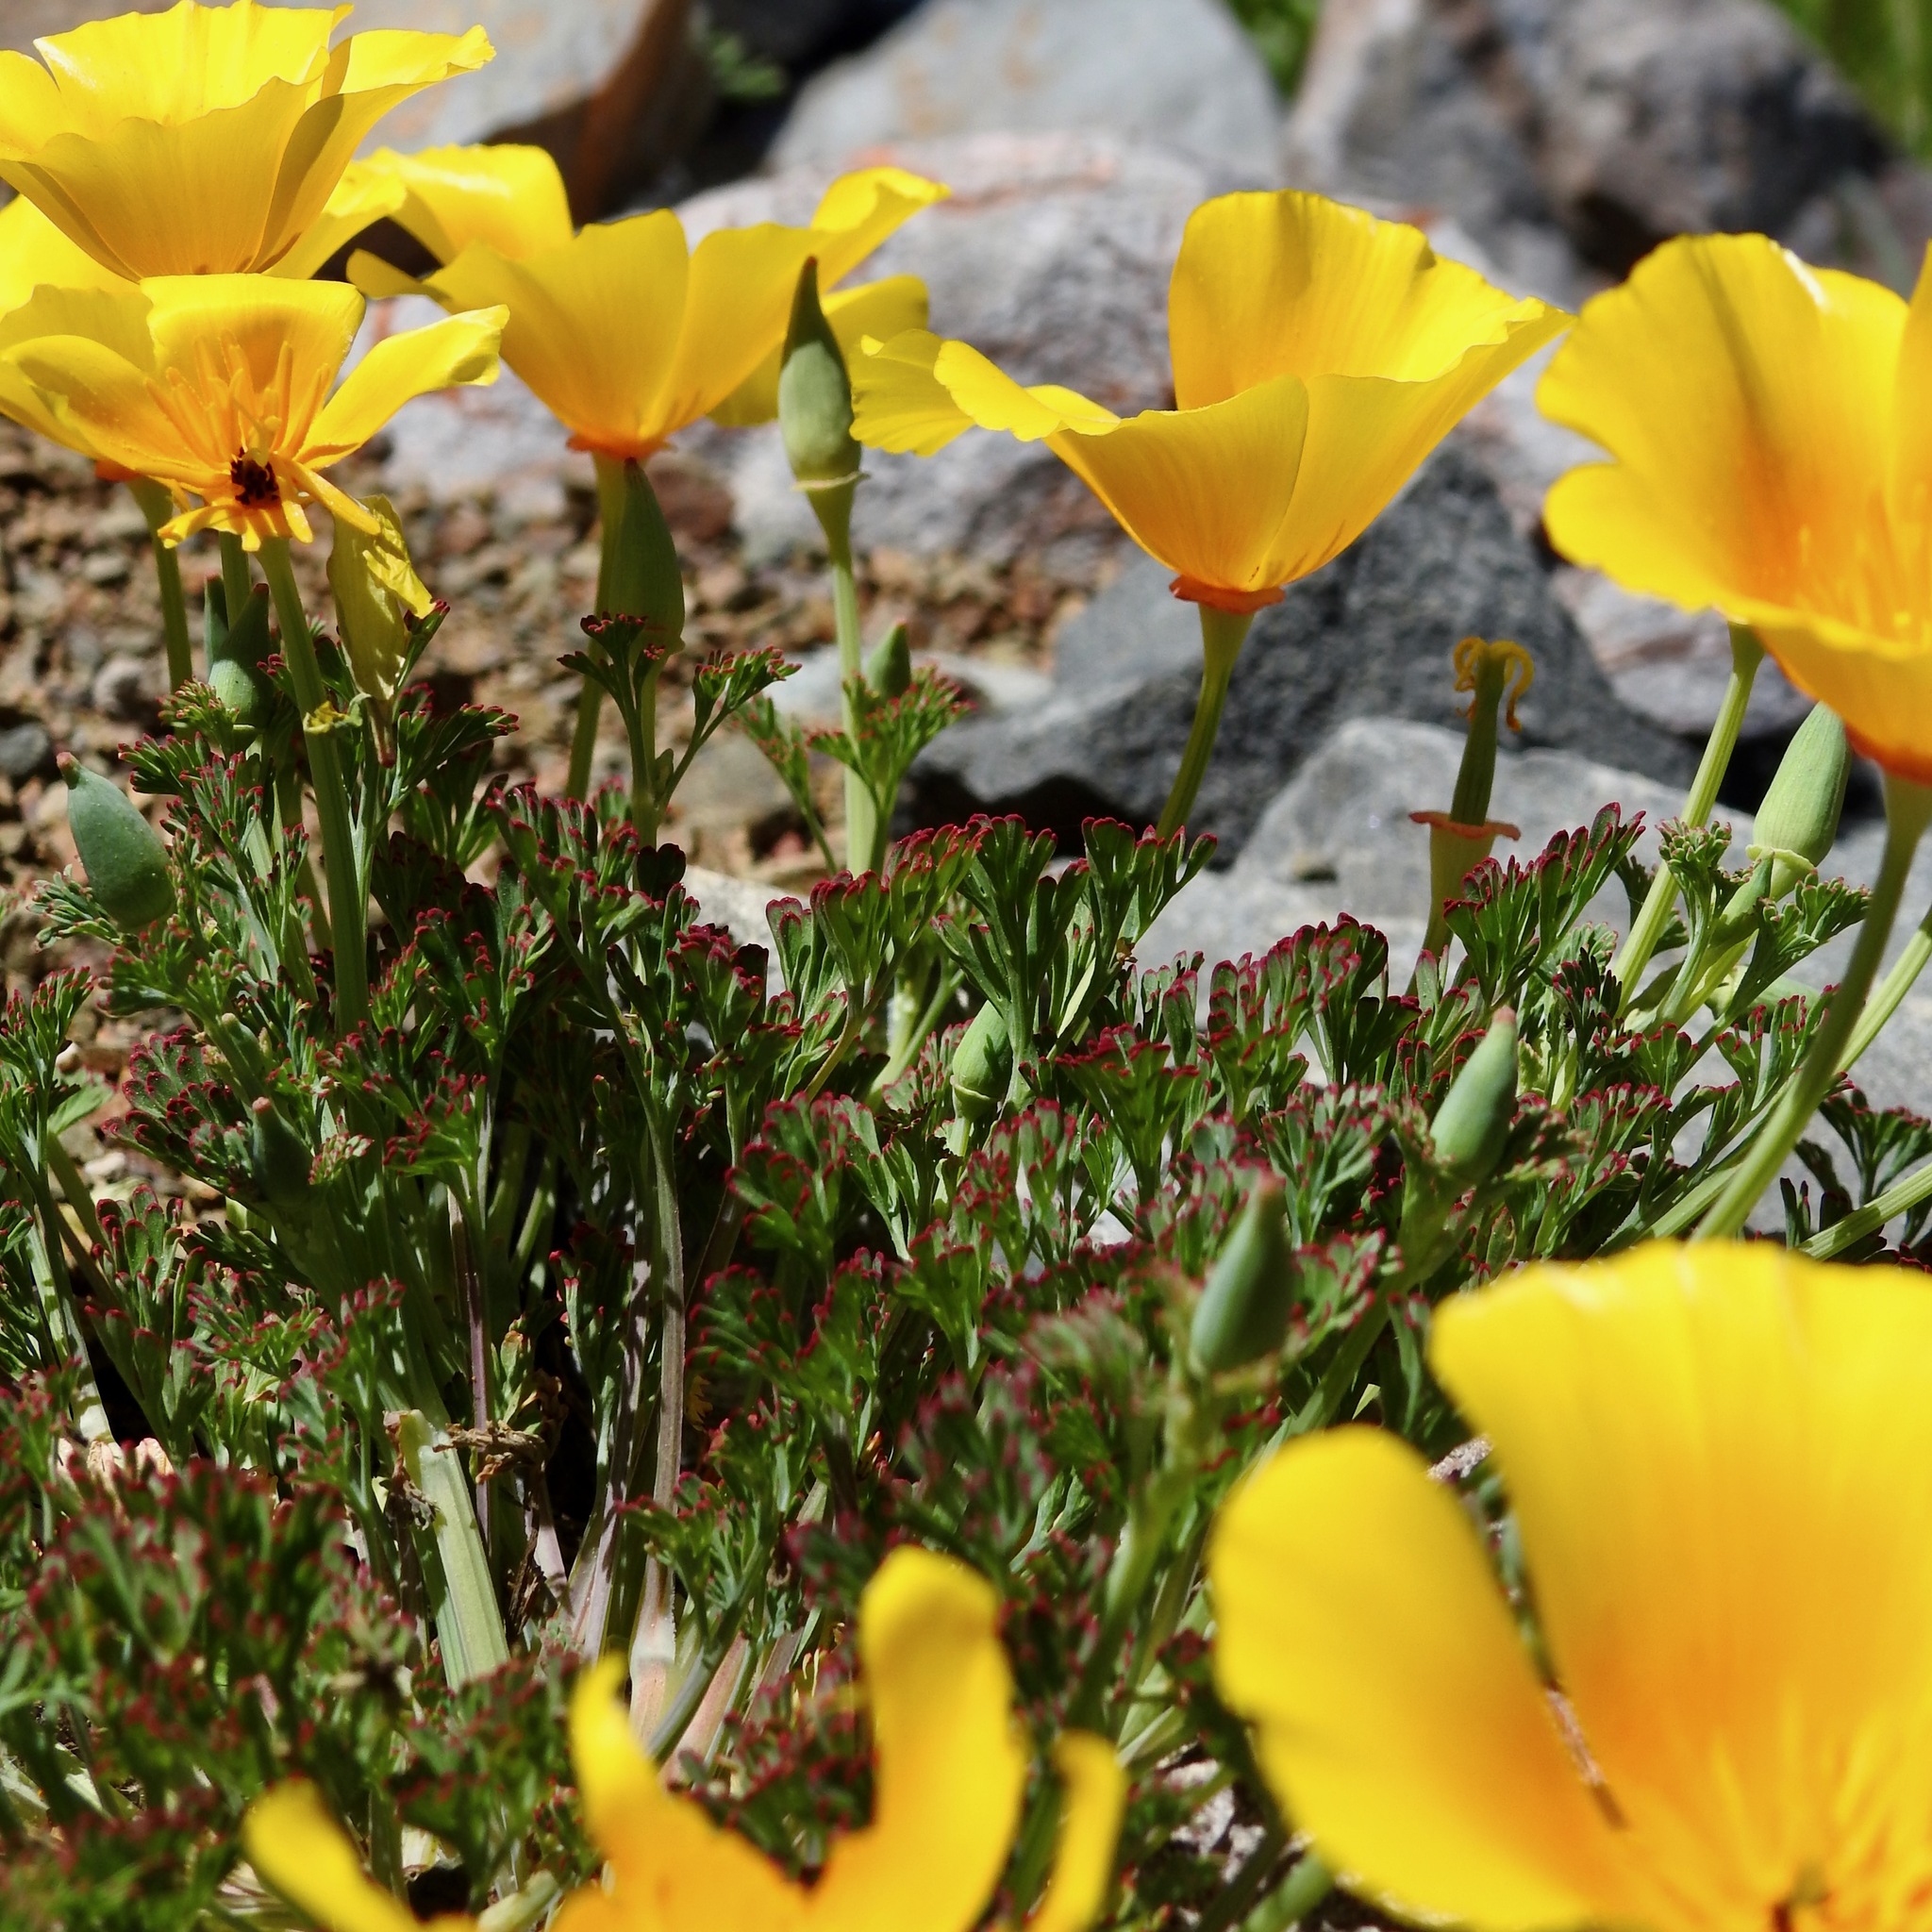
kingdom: Plantae
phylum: Tracheophyta
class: Magnoliopsida
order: Ranunculales
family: Papaveraceae
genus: Eschscholzia
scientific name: Eschscholzia californica
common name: California poppy
